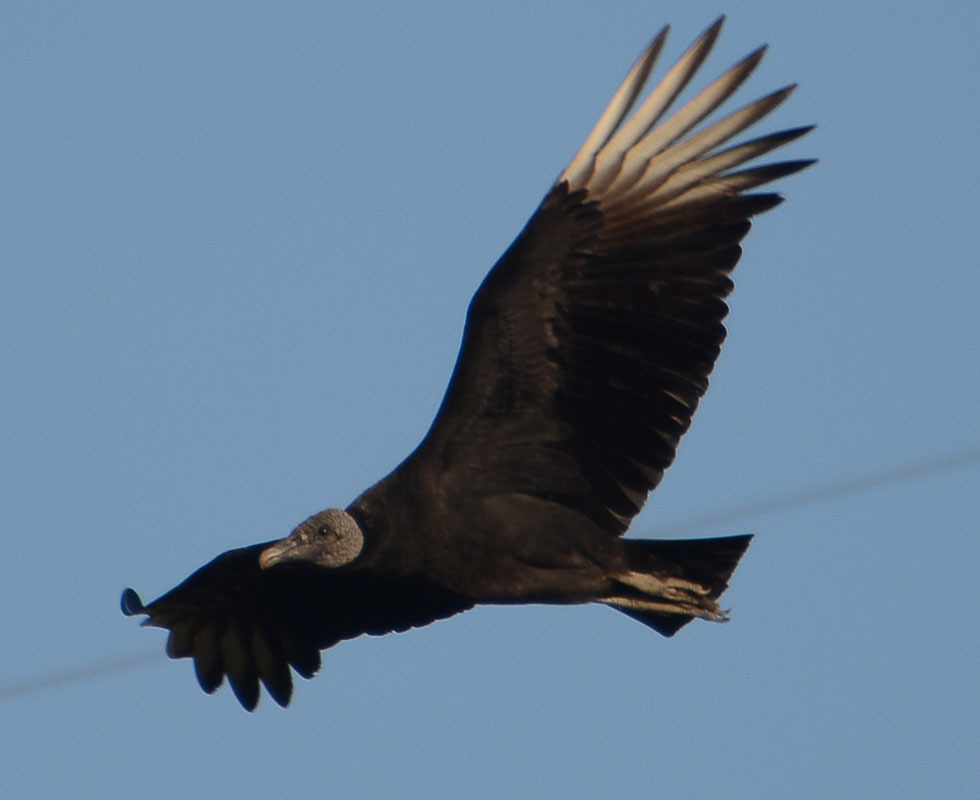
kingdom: Animalia
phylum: Chordata
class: Aves
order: Accipitriformes
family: Cathartidae
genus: Coragyps
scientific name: Coragyps atratus
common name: Black vulture
